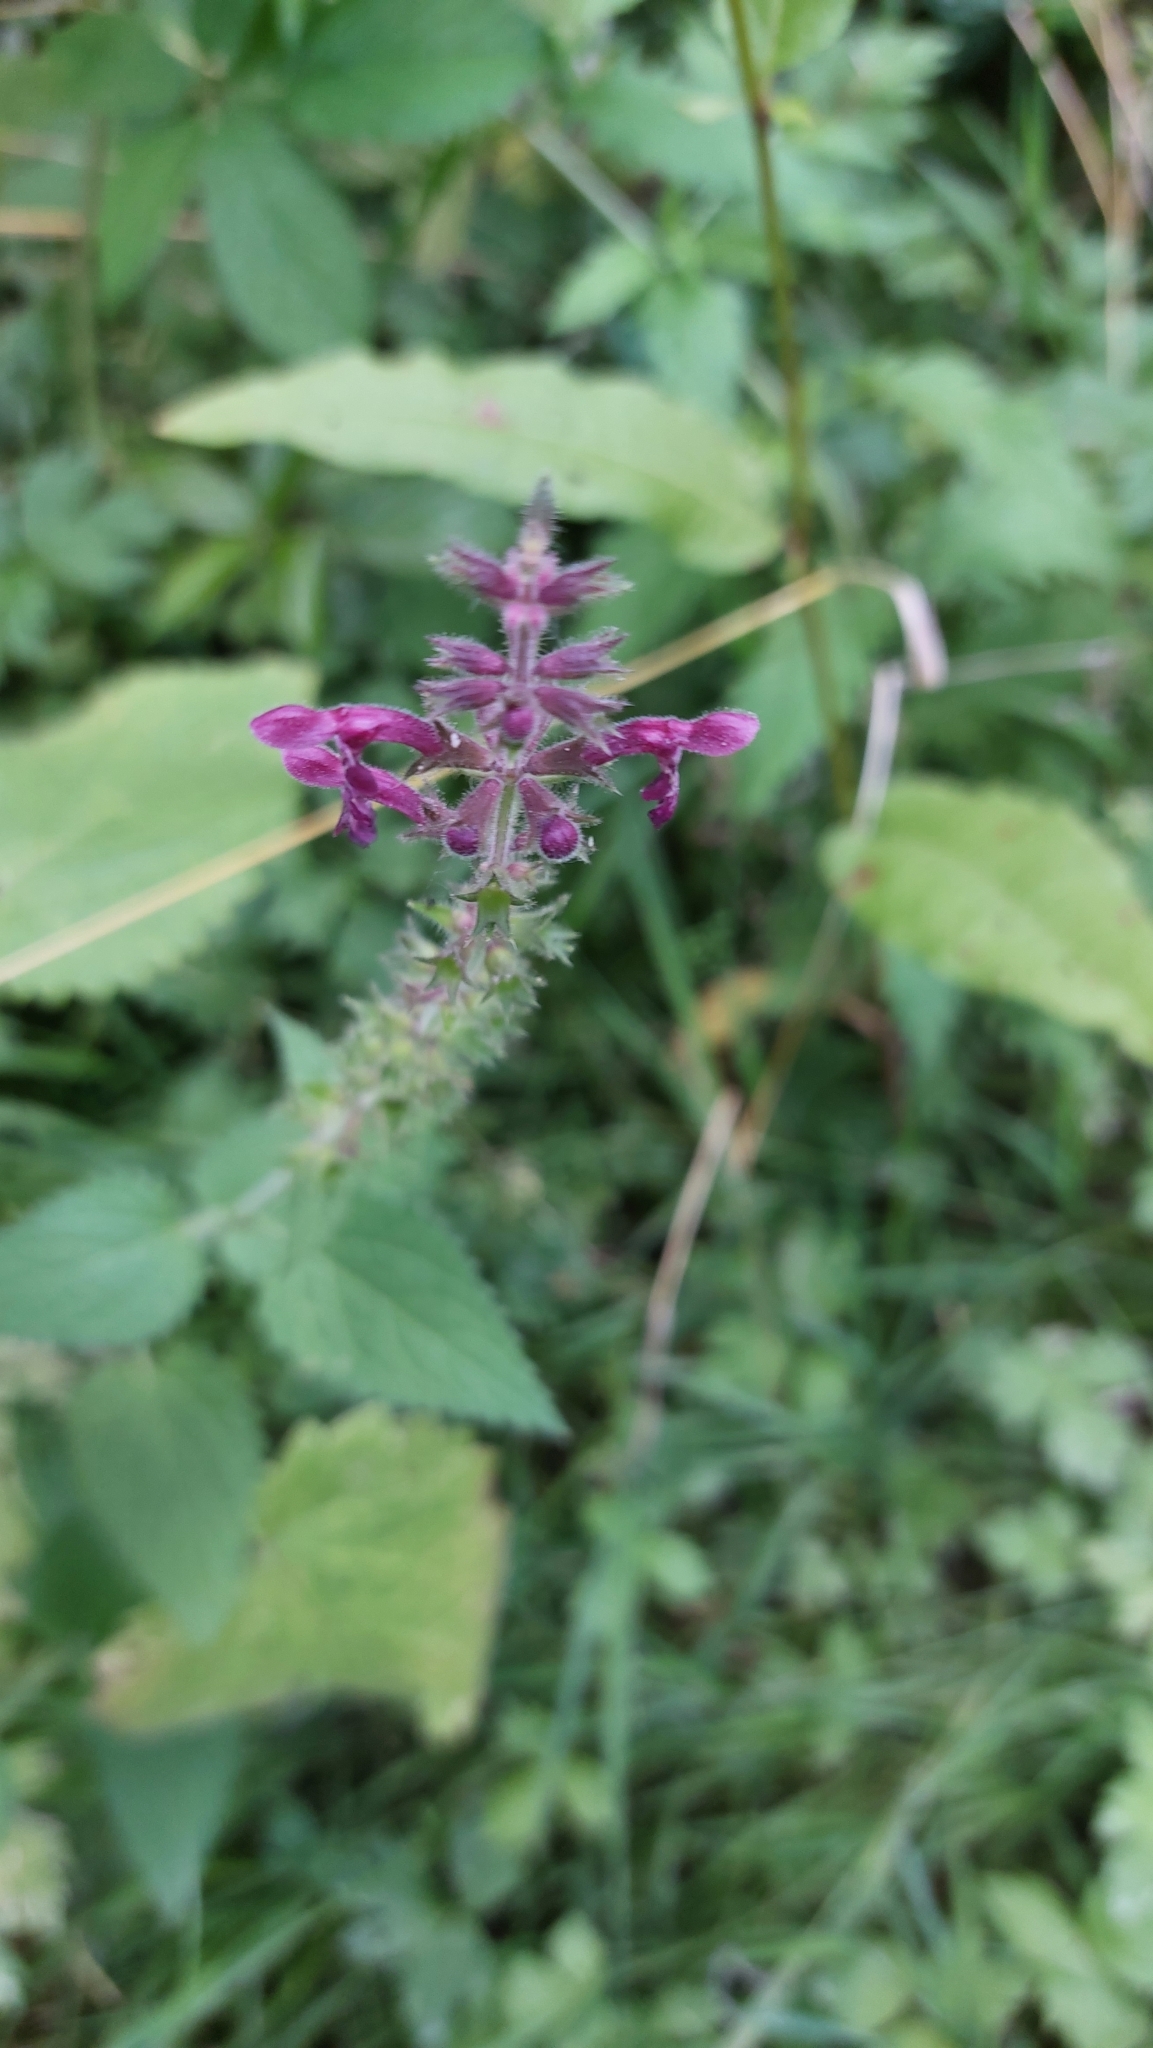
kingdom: Plantae
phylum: Tracheophyta
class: Magnoliopsida
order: Lamiales
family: Lamiaceae
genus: Stachys
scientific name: Stachys sylvatica
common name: Hedge woundwort
